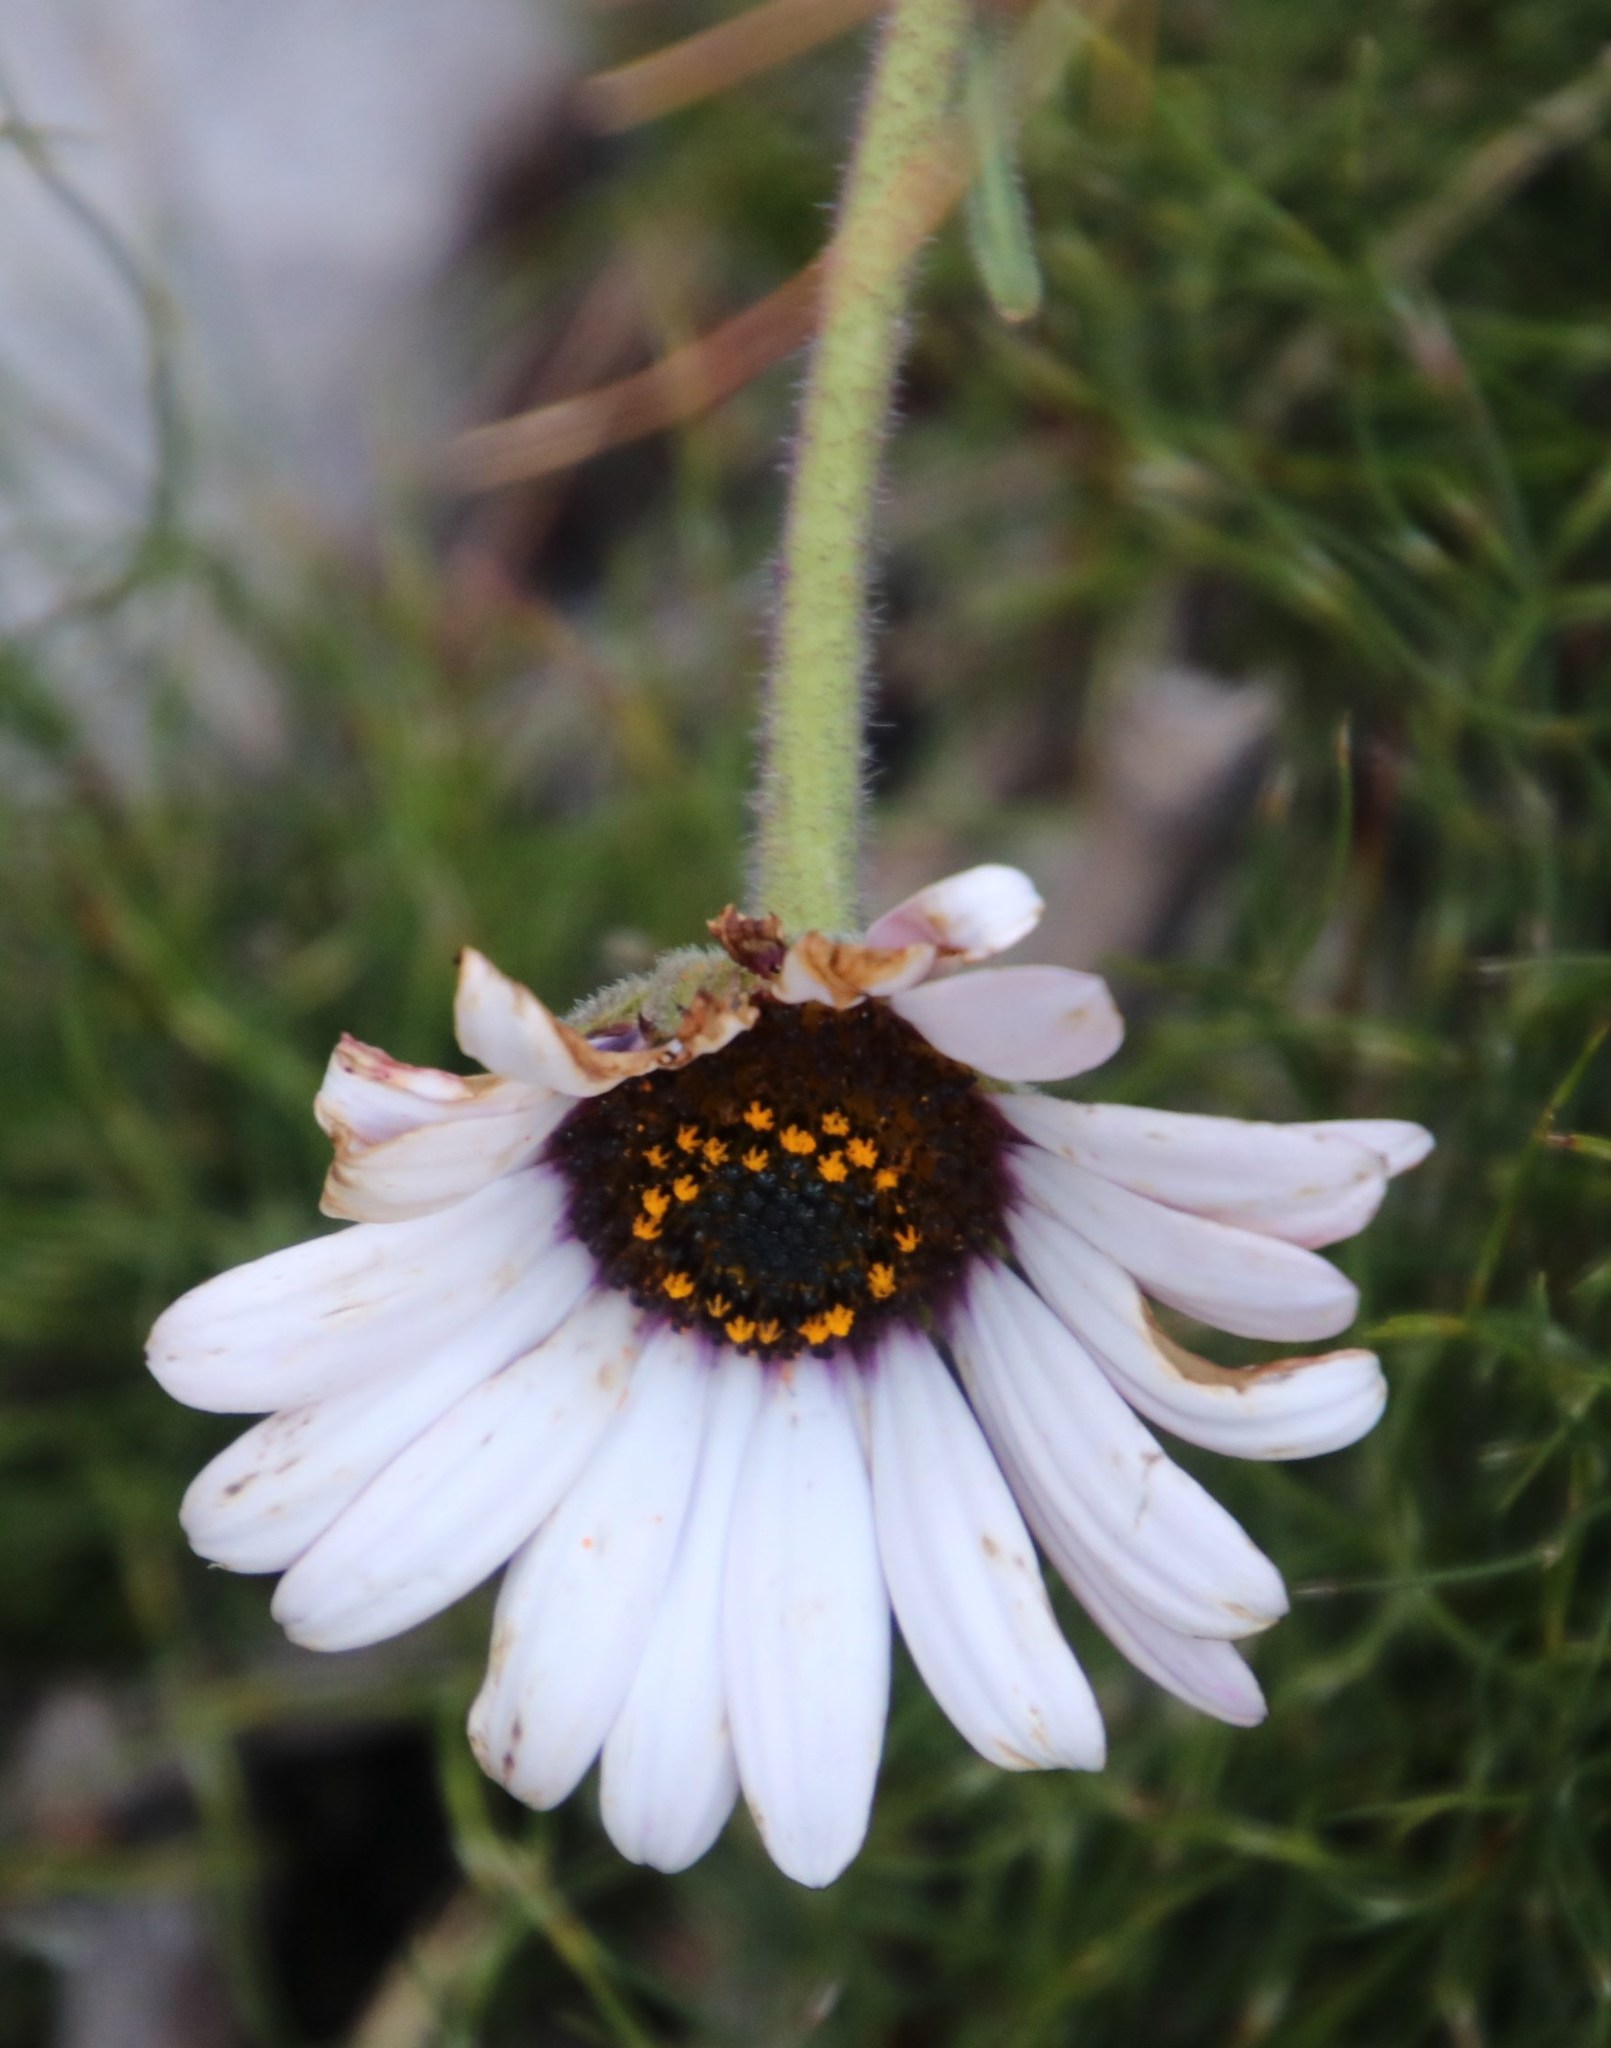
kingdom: Plantae
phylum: Tracheophyta
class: Magnoliopsida
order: Asterales
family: Asteraceae
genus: Dimorphotheca
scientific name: Dimorphotheca nudicaulis
